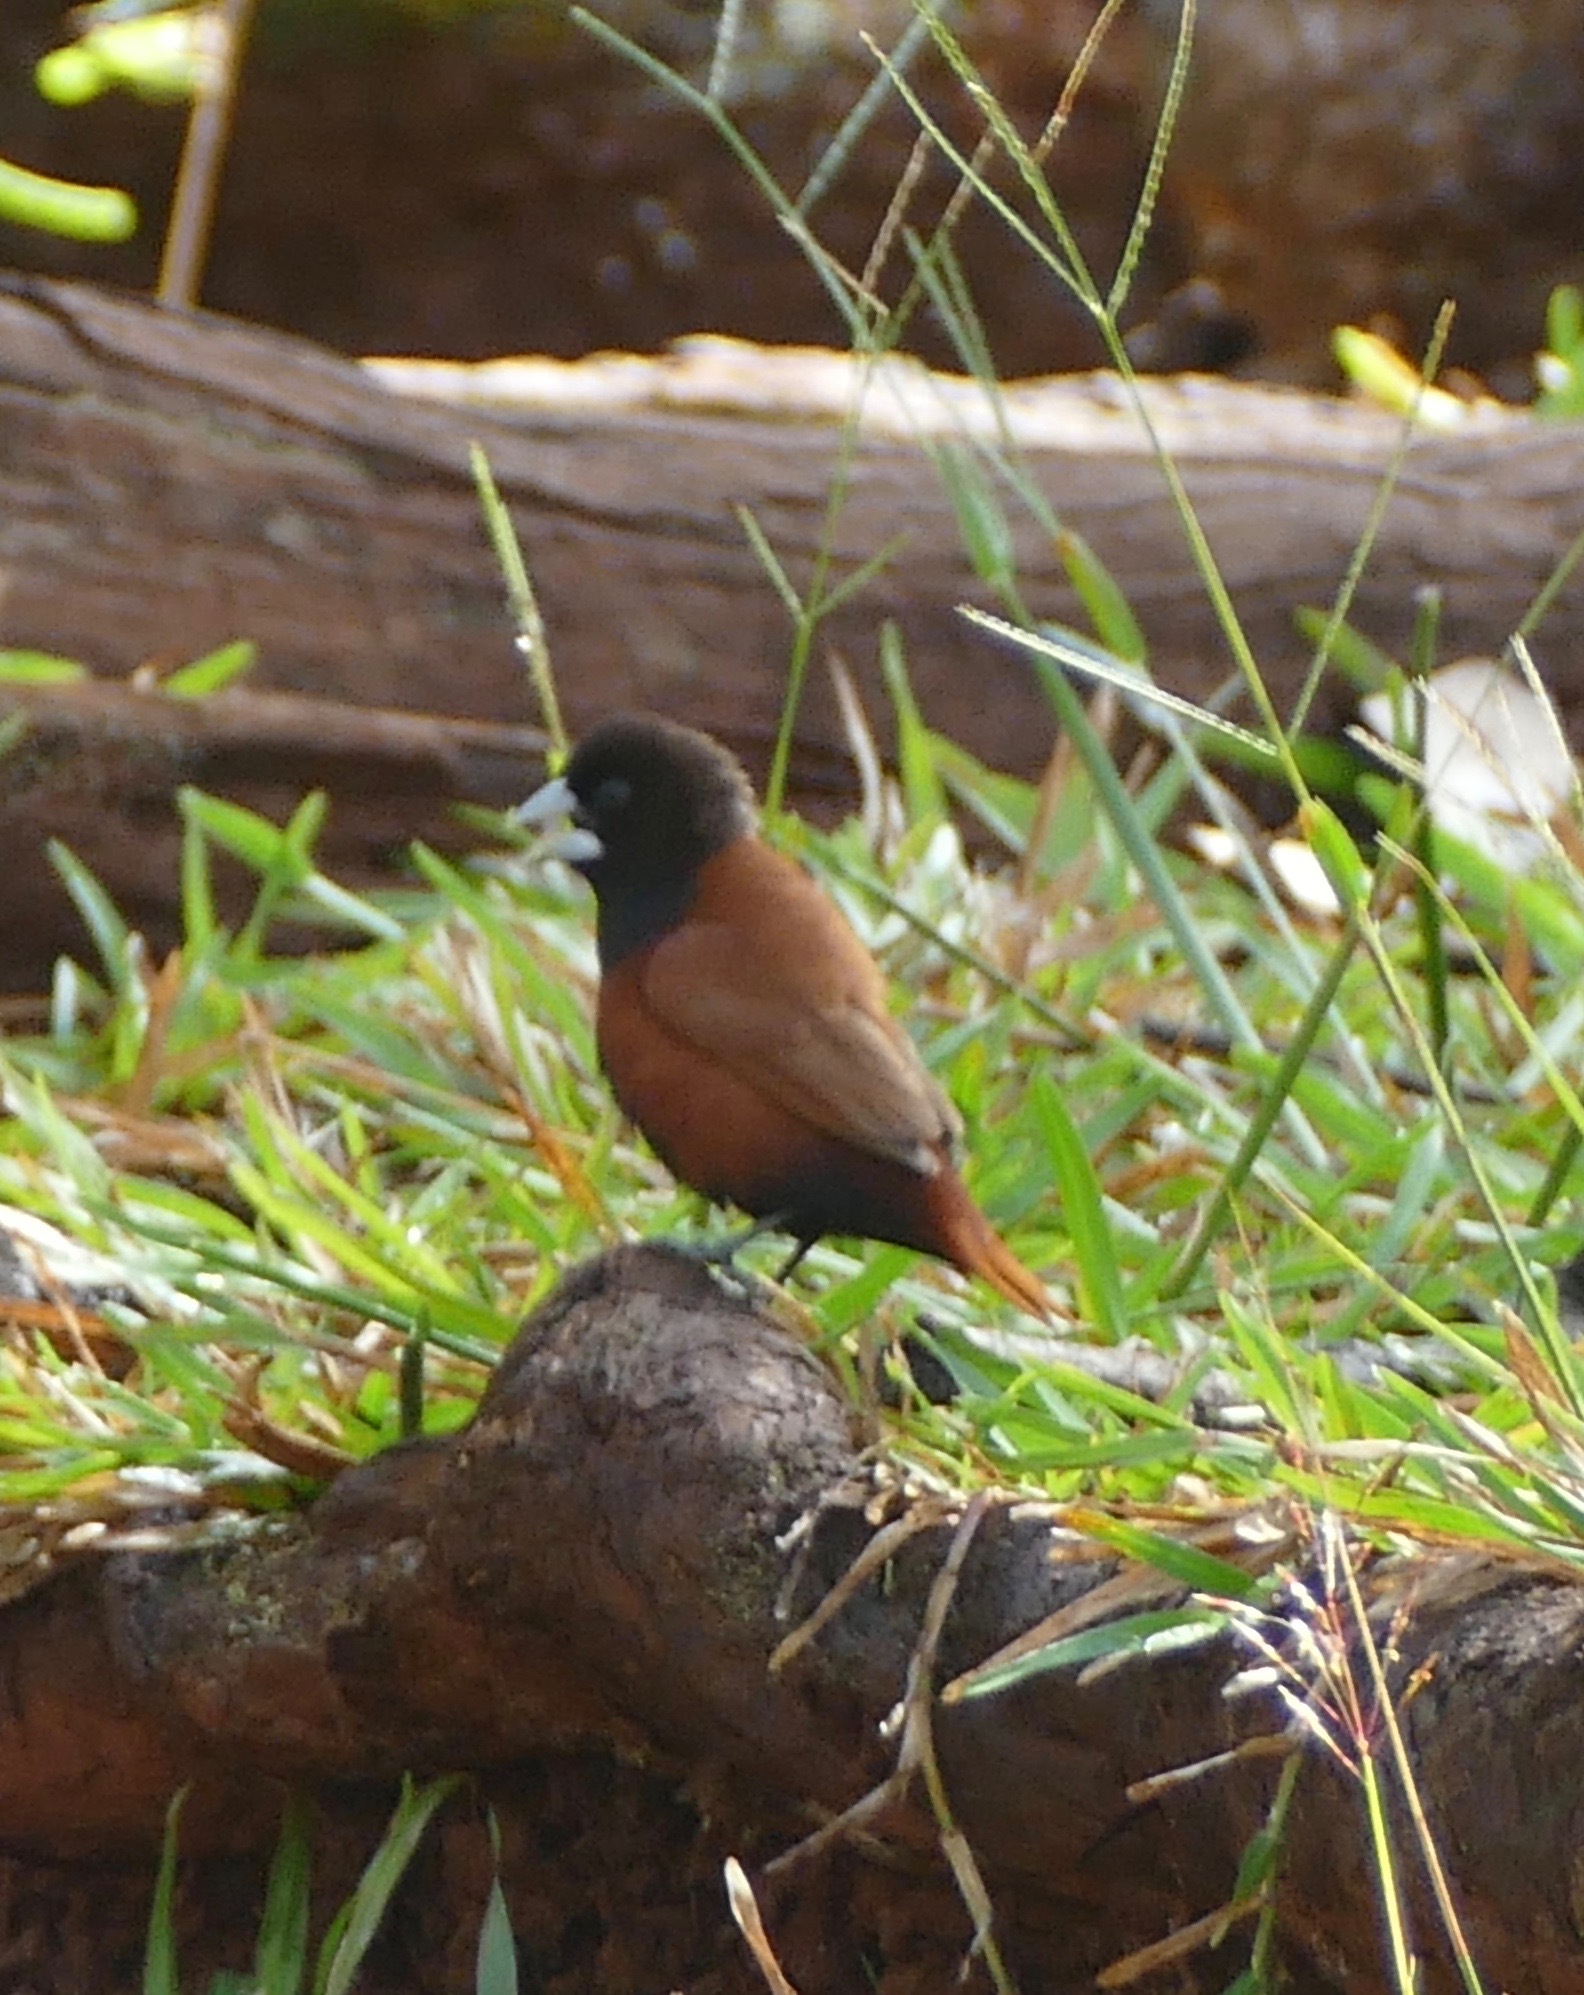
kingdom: Animalia
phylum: Chordata
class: Aves
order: Passeriformes
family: Estrildidae
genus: Lonchura
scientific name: Lonchura atricapilla
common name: Chestnut munia
